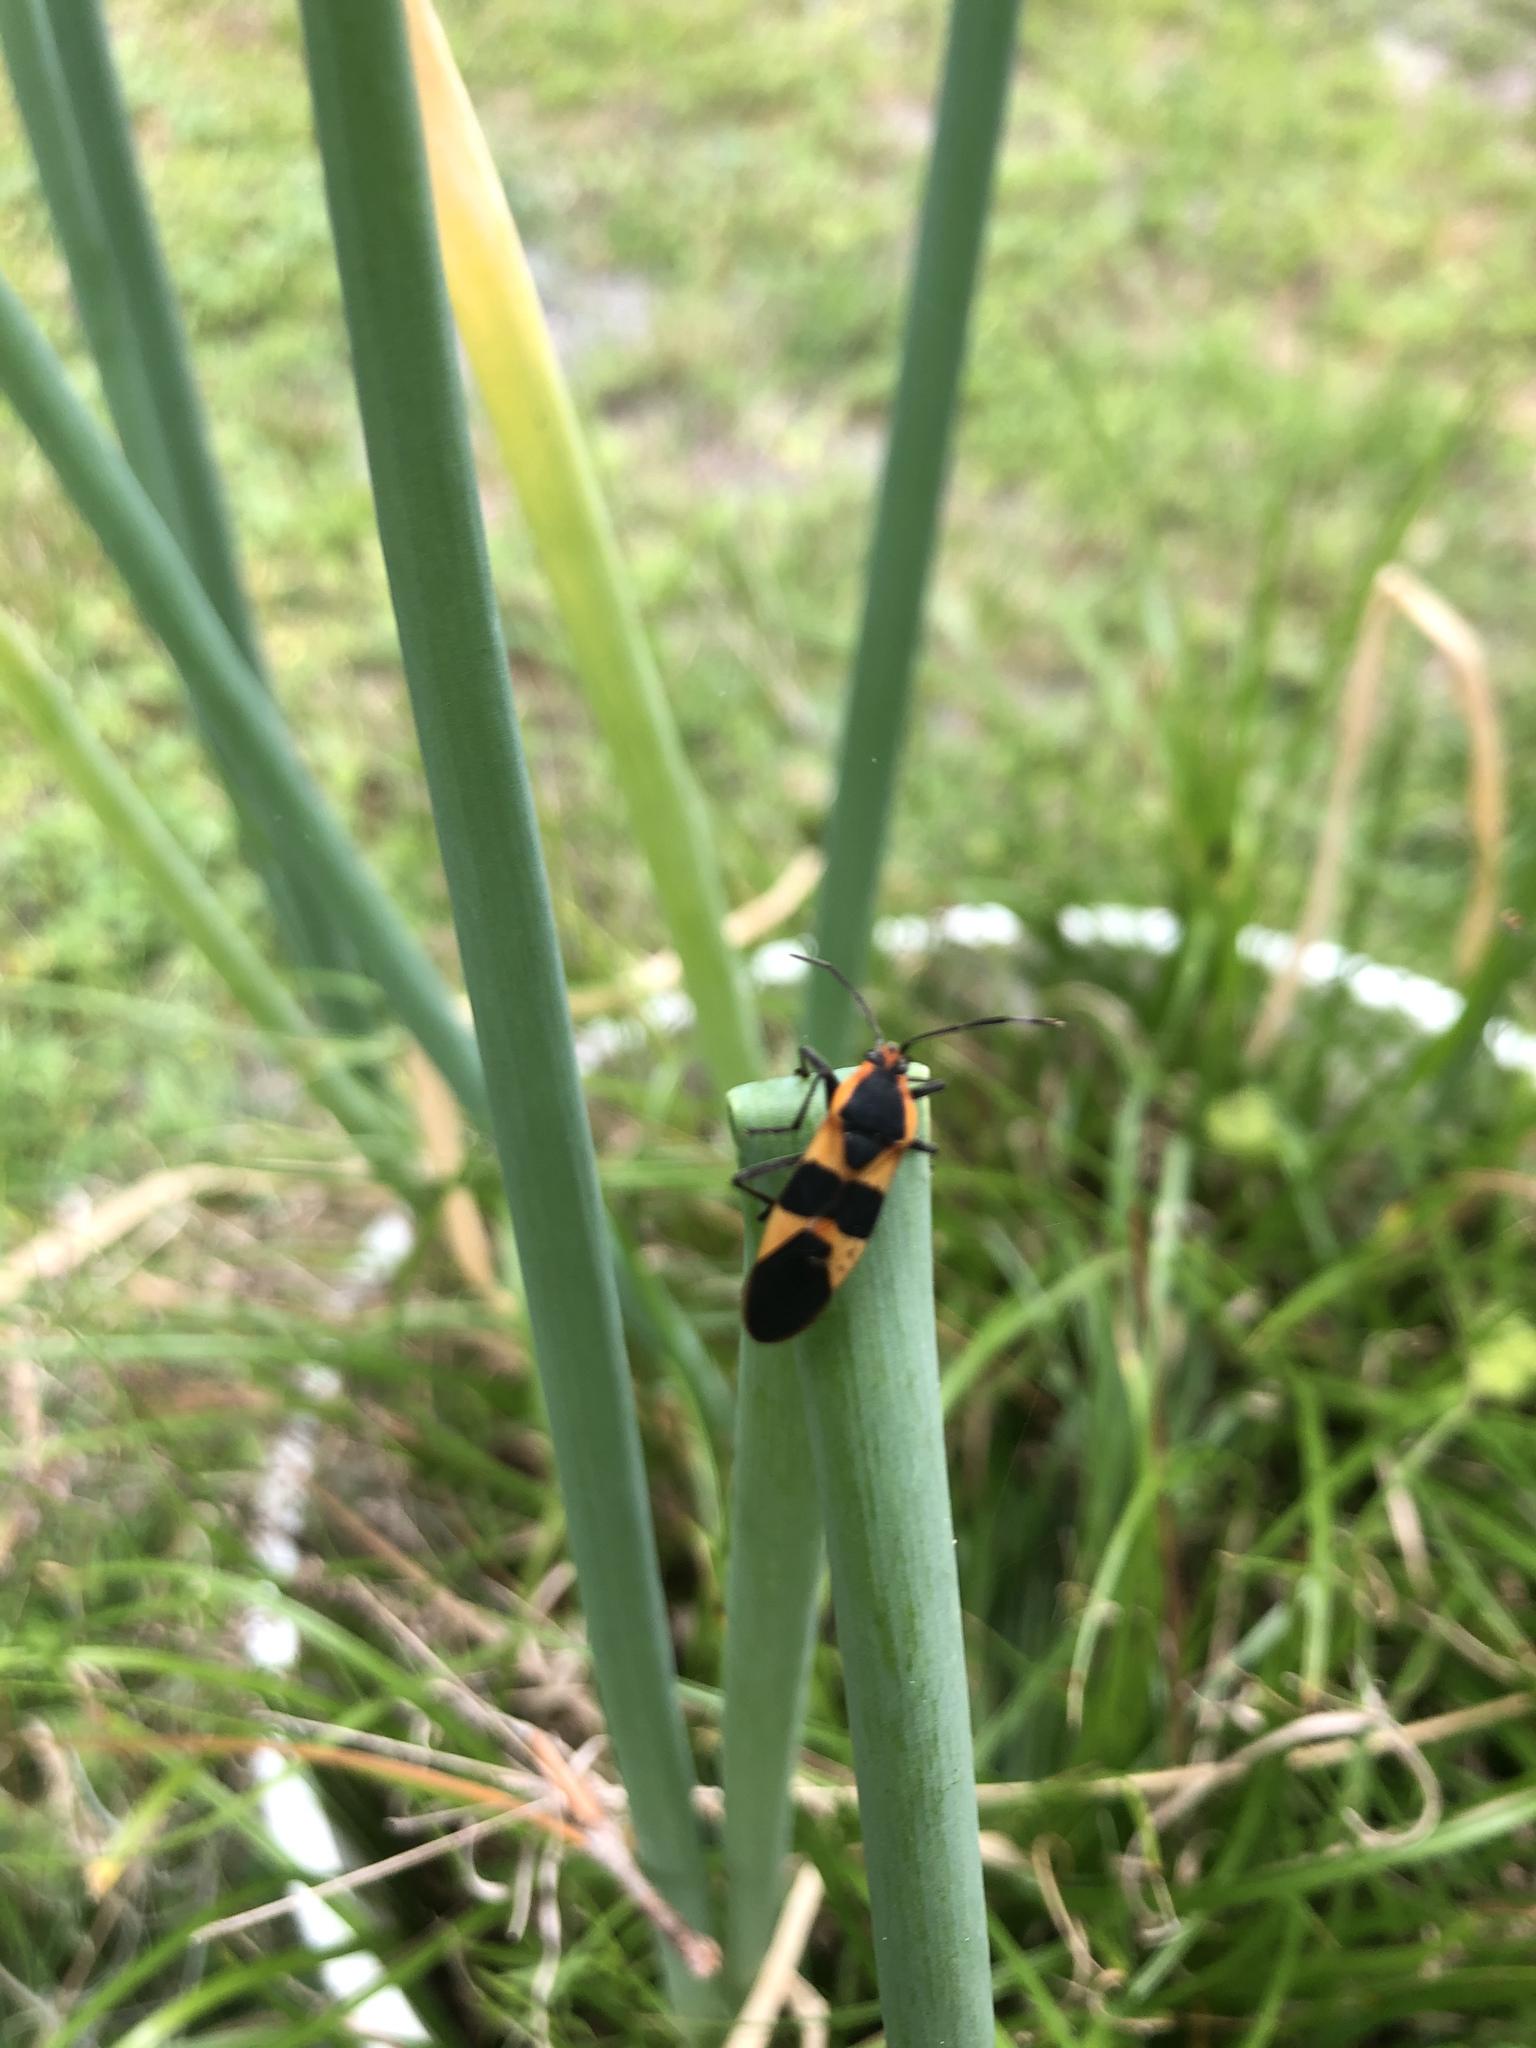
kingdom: Animalia
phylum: Arthropoda
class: Insecta
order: Hemiptera
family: Lygaeidae
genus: Oncopeltus
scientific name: Oncopeltus fasciatus
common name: Large milkweed bug
